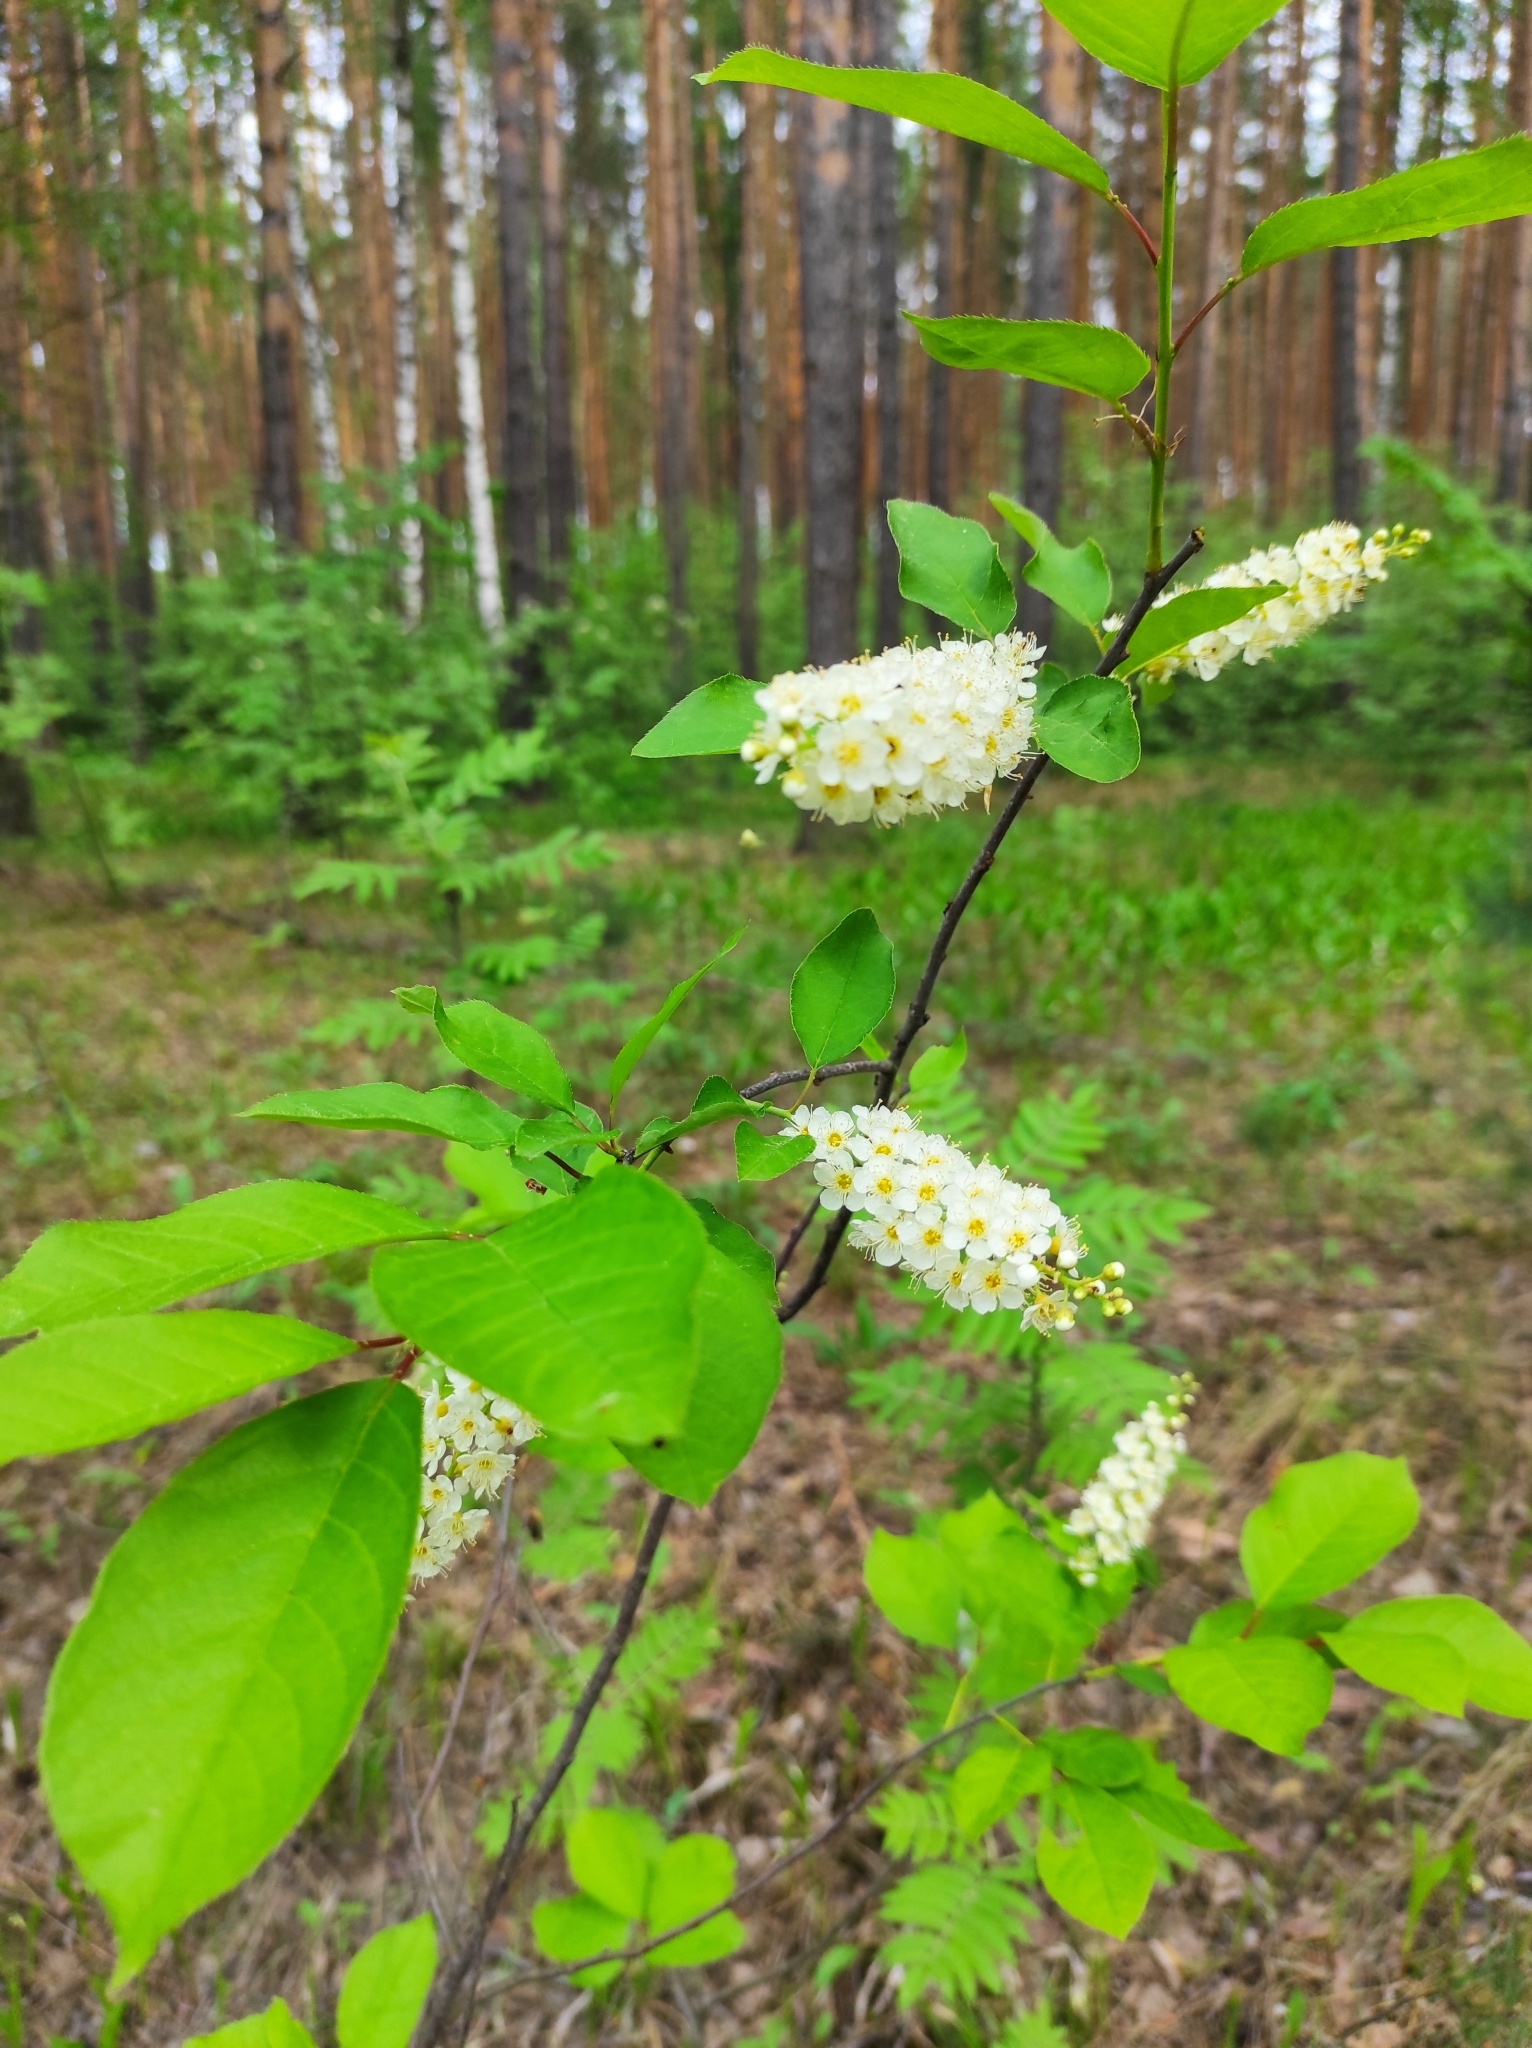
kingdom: Plantae
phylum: Tracheophyta
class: Magnoliopsida
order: Rosales
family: Rosaceae
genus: Prunus
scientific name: Prunus padus
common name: Bird cherry
